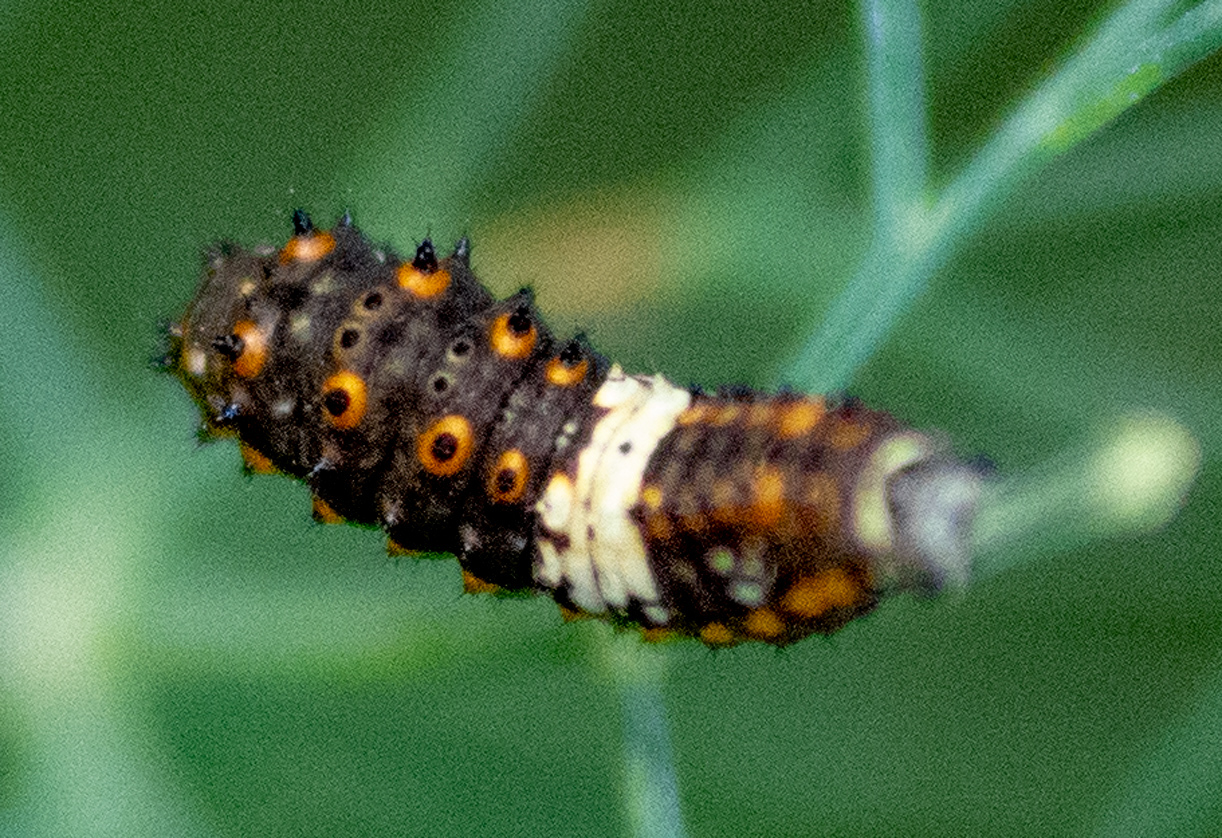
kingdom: Animalia
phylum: Arthropoda
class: Insecta
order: Lepidoptera
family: Papilionidae
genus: Papilio
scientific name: Papilio polyxenes
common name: Black swallowtail
